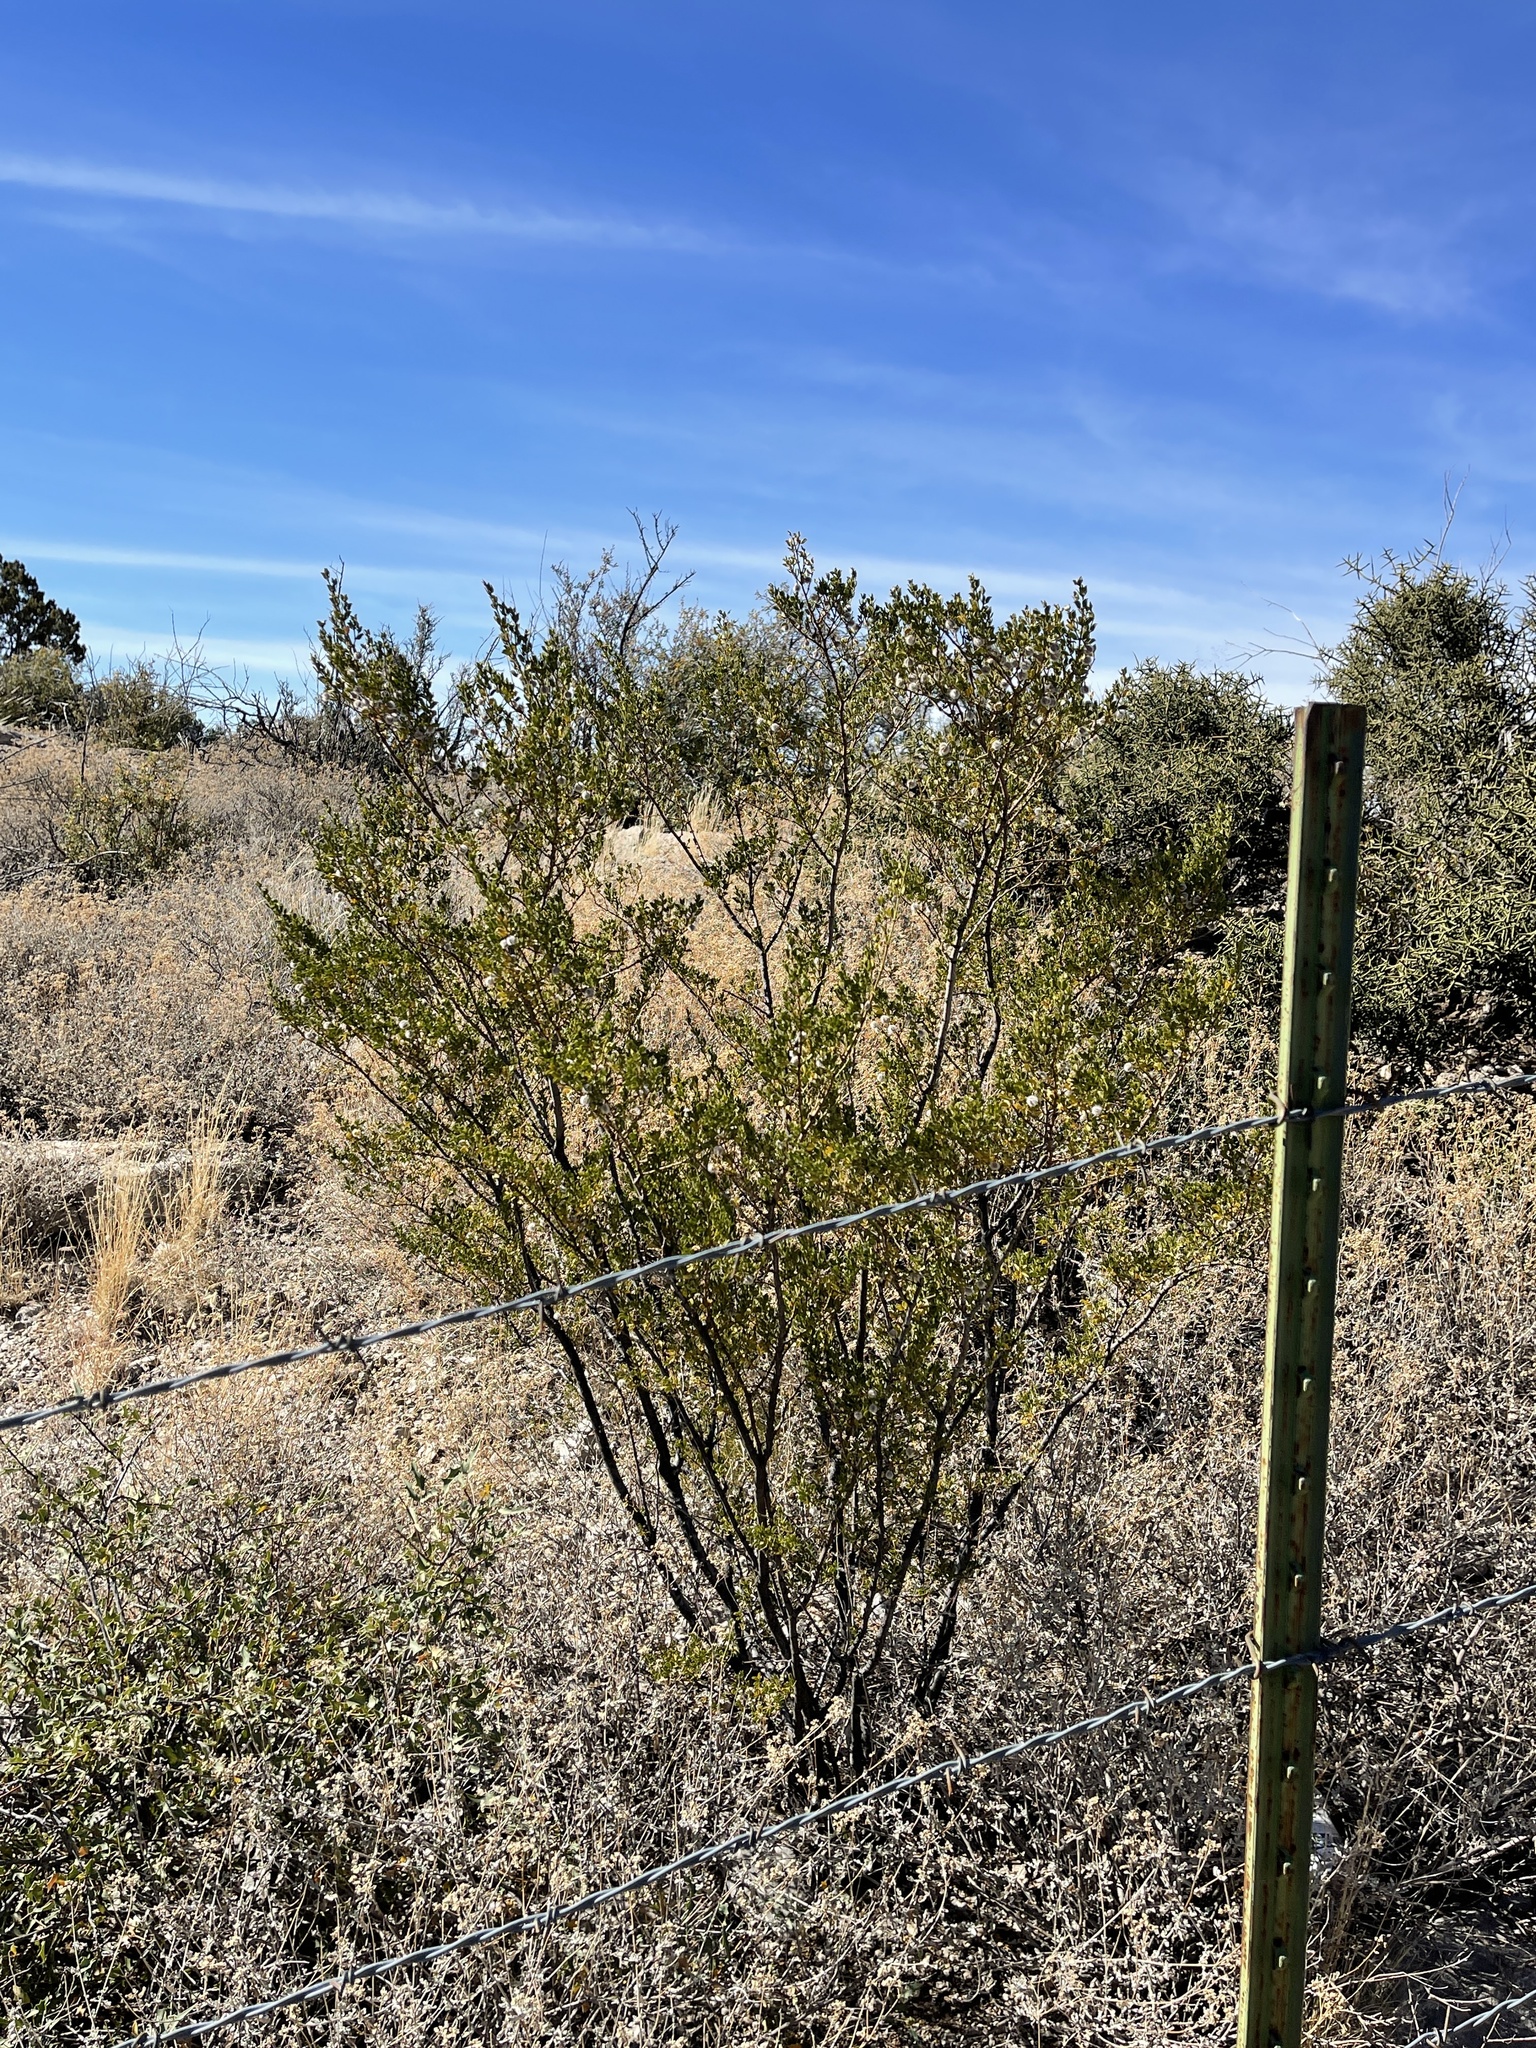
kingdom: Plantae
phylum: Tracheophyta
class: Magnoliopsida
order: Zygophyllales
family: Zygophyllaceae
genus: Larrea
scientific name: Larrea tridentata
